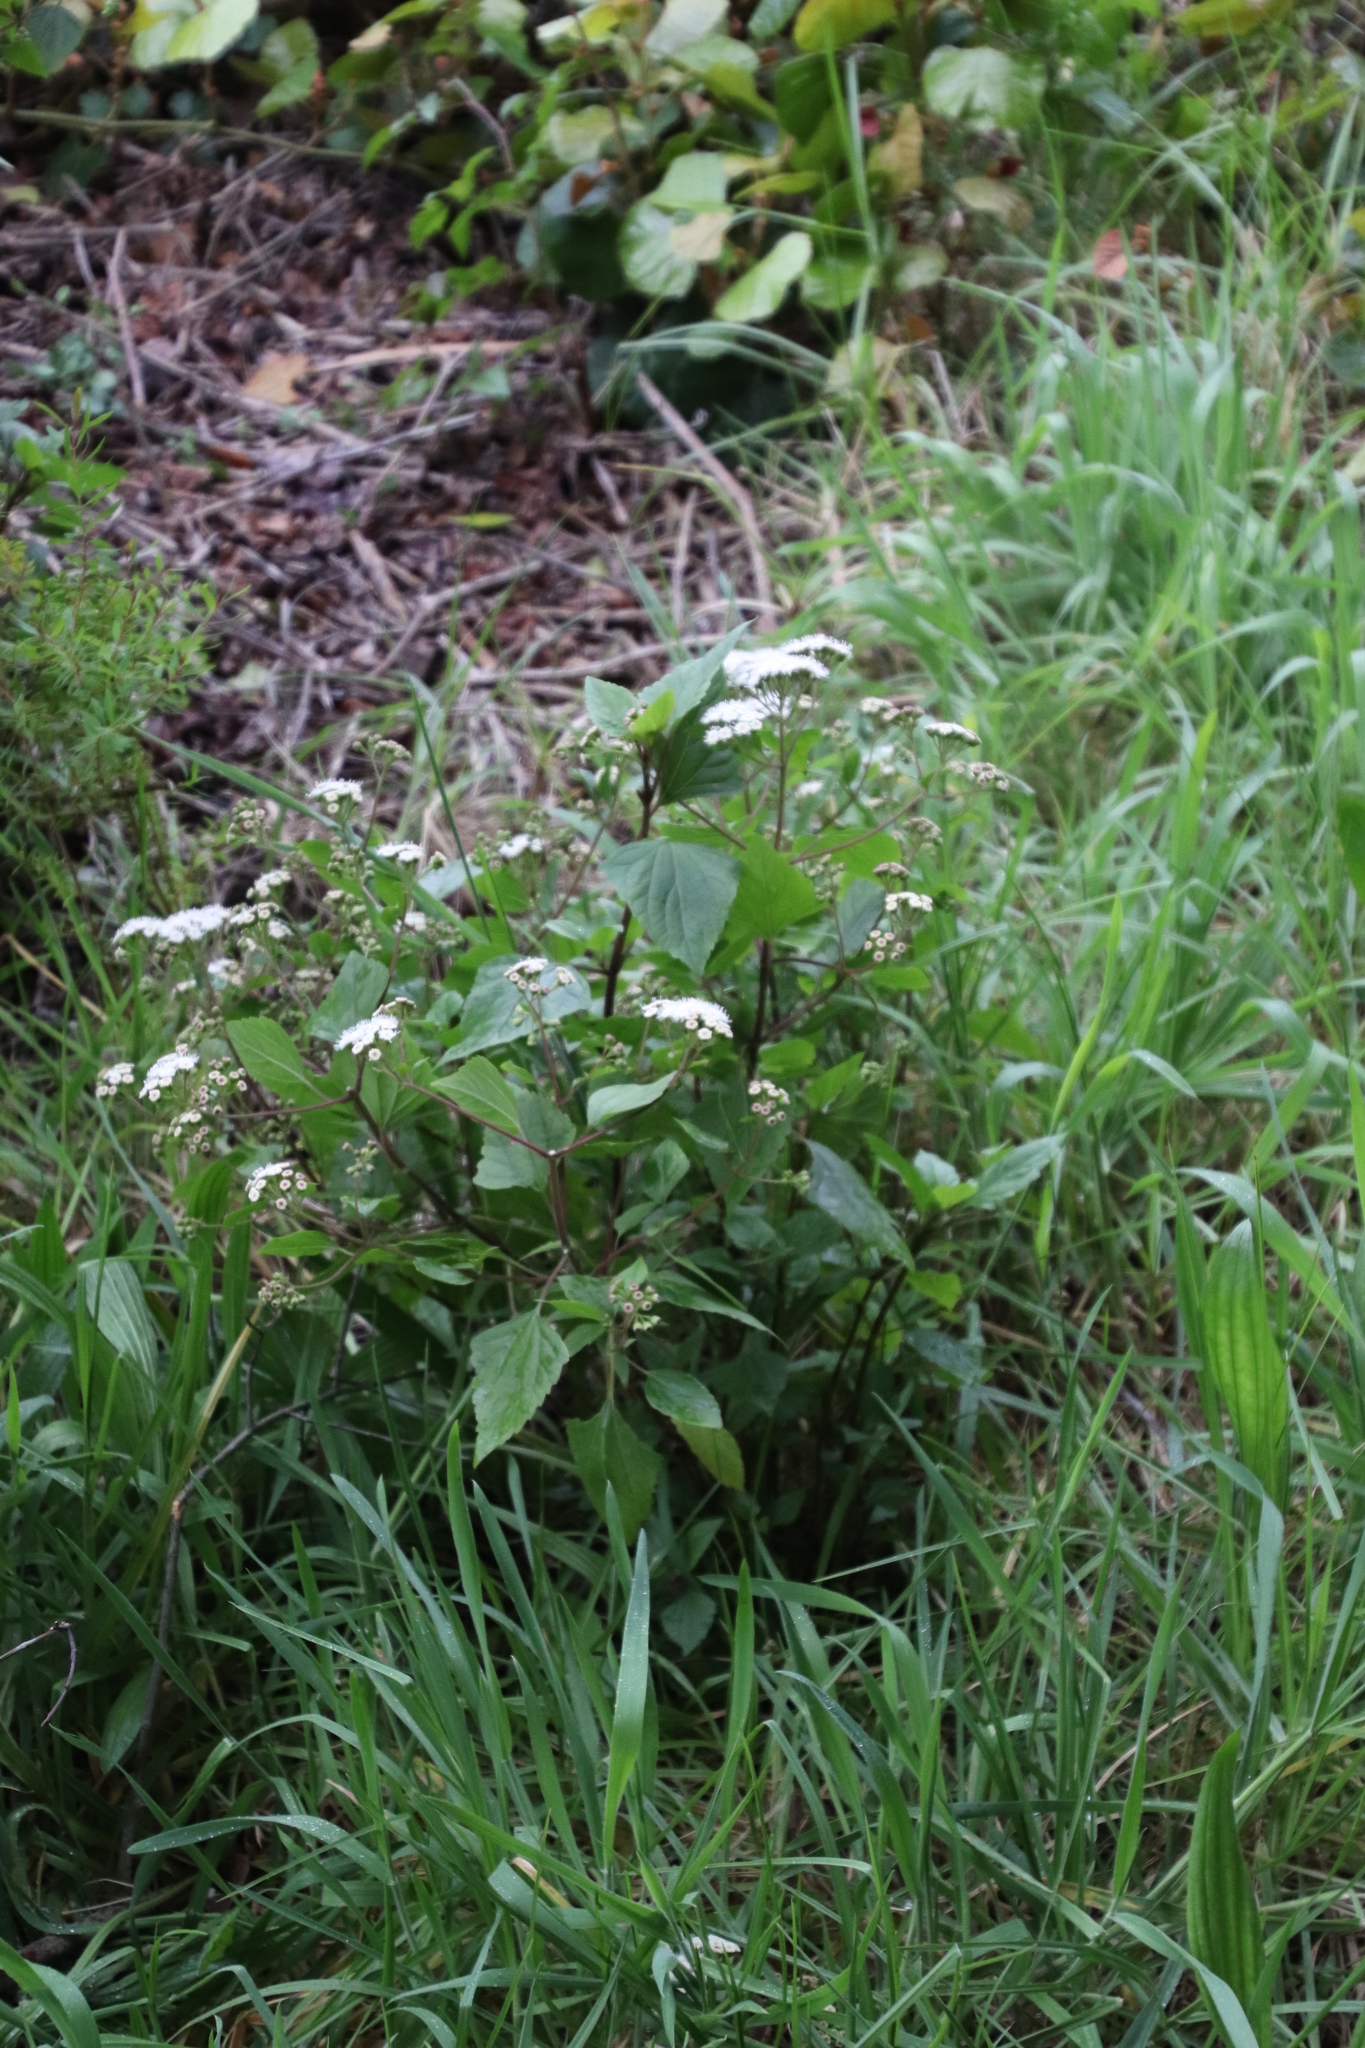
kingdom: Plantae
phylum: Tracheophyta
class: Magnoliopsida
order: Asterales
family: Asteraceae
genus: Ageratina
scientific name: Ageratina adenophora
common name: Sticky snakeroot
